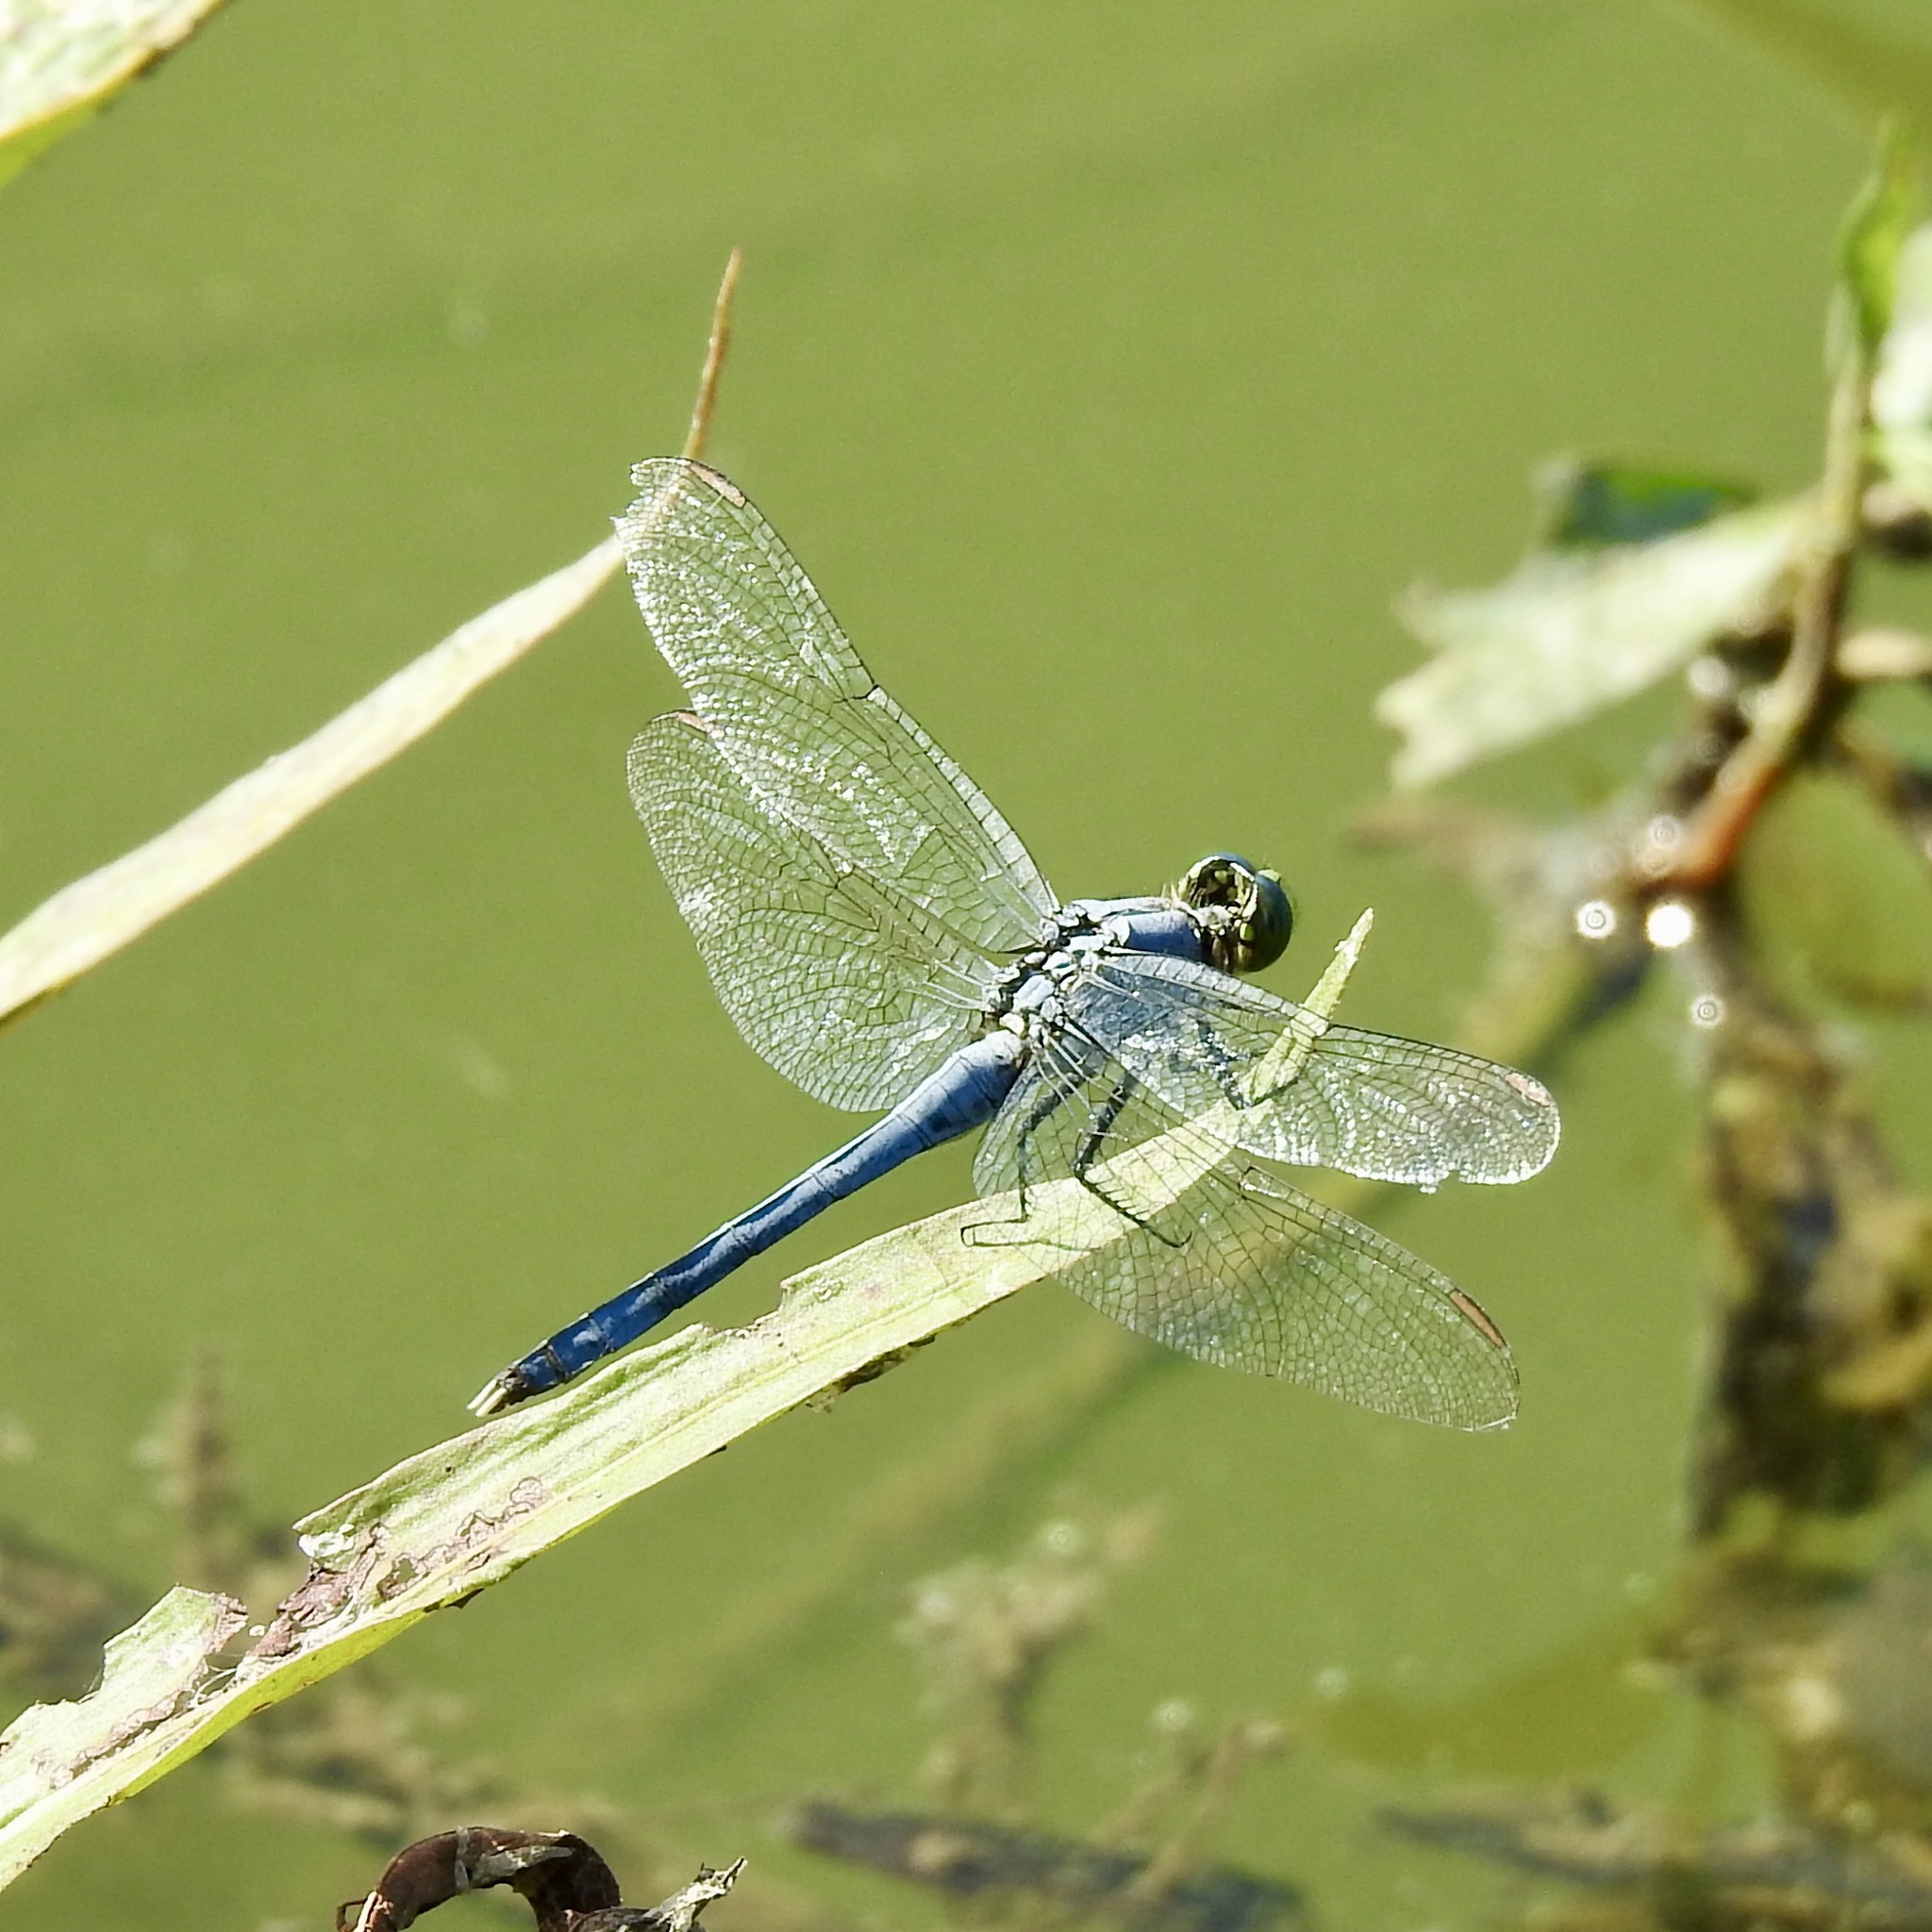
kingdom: Animalia
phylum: Arthropoda
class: Insecta
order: Odonata
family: Libellulidae
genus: Erythemis
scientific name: Erythemis simplicicollis
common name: Eastern pondhawk
